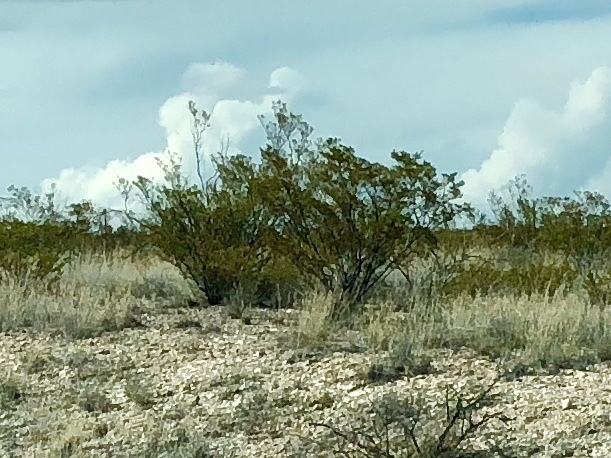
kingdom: Plantae
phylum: Tracheophyta
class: Magnoliopsida
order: Zygophyllales
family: Zygophyllaceae
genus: Larrea
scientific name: Larrea tridentata
